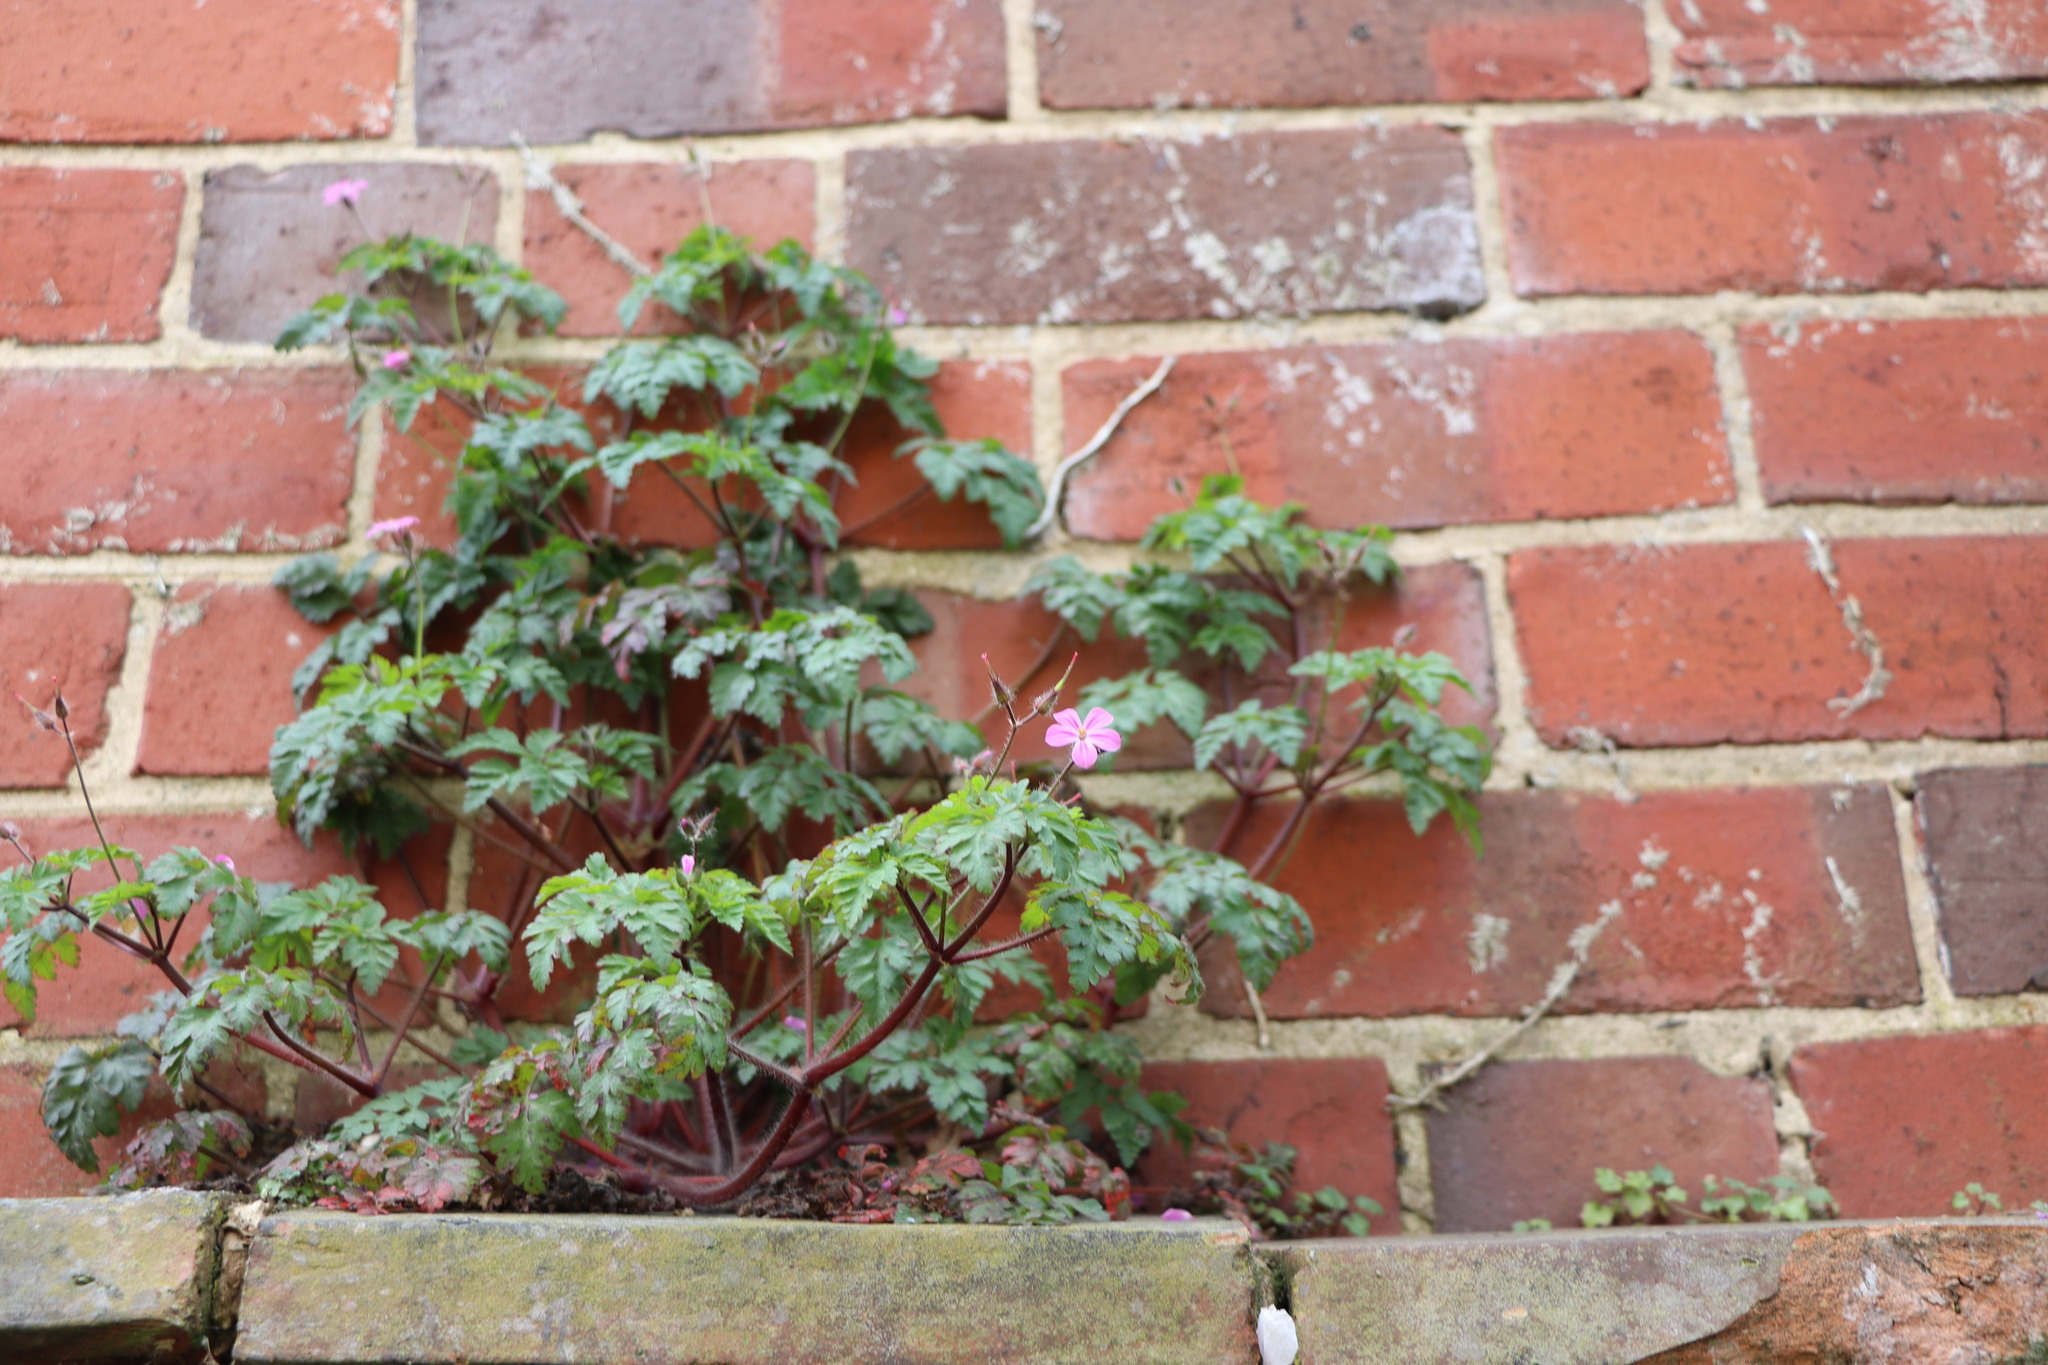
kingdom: Plantae
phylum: Tracheophyta
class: Magnoliopsida
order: Geraniales
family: Geraniaceae
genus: Geranium
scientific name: Geranium robertianum
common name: Herb-robert
